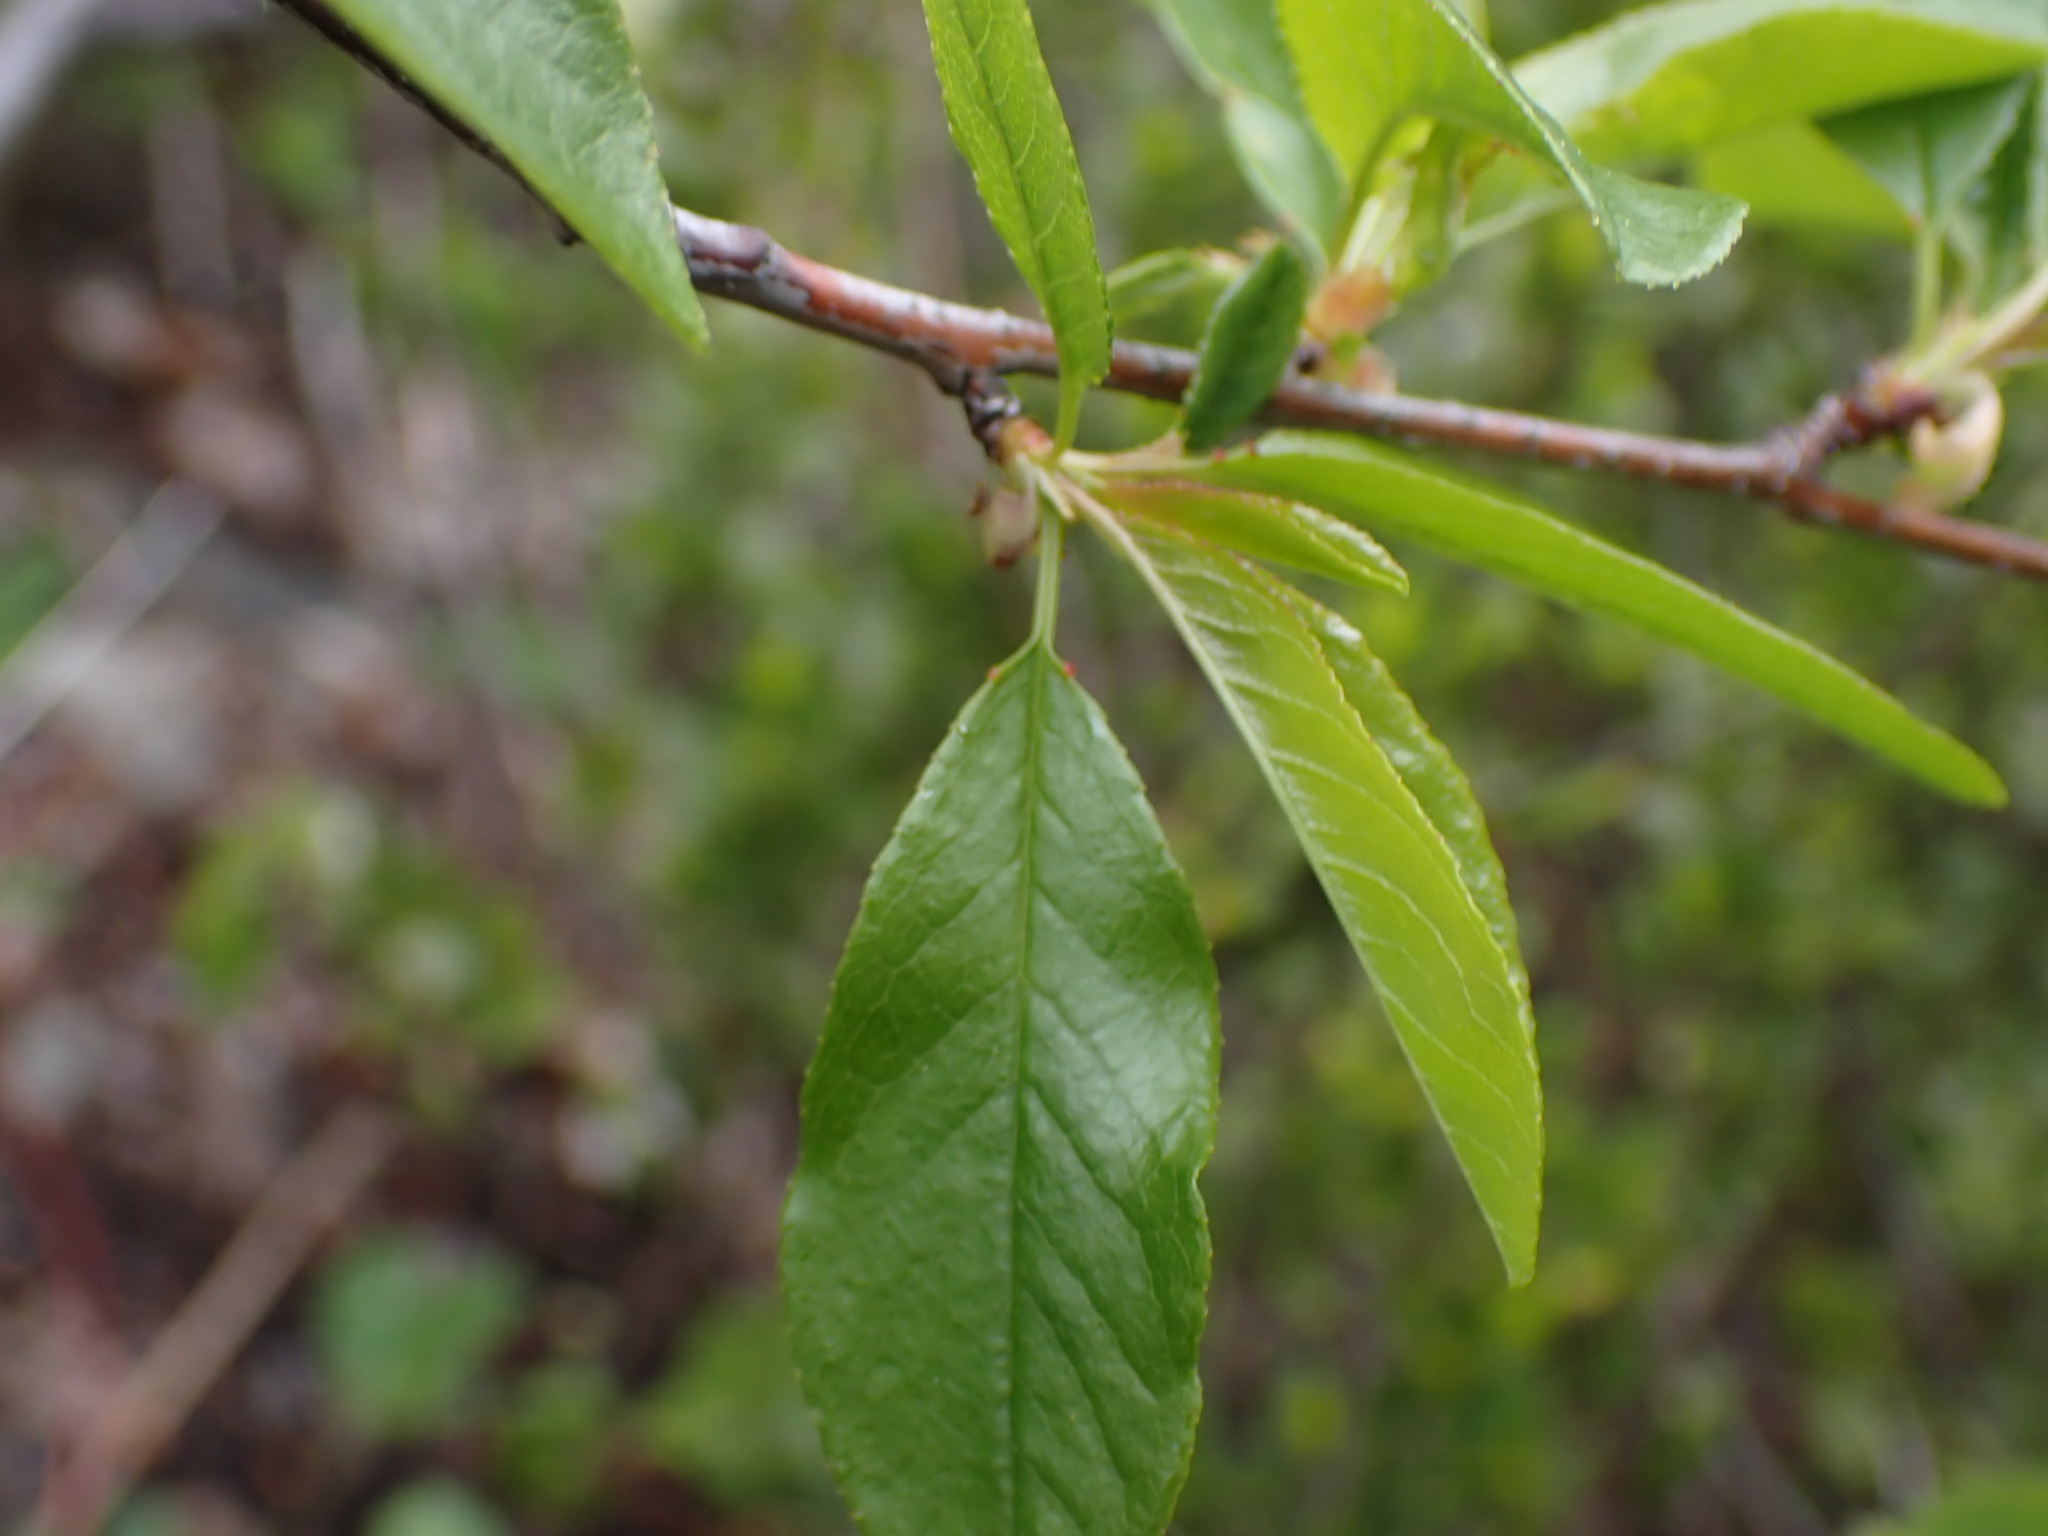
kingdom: Plantae
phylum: Tracheophyta
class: Magnoliopsida
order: Rosales
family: Rosaceae
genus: Prunus
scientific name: Prunus emarginata
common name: Bitter cherry
